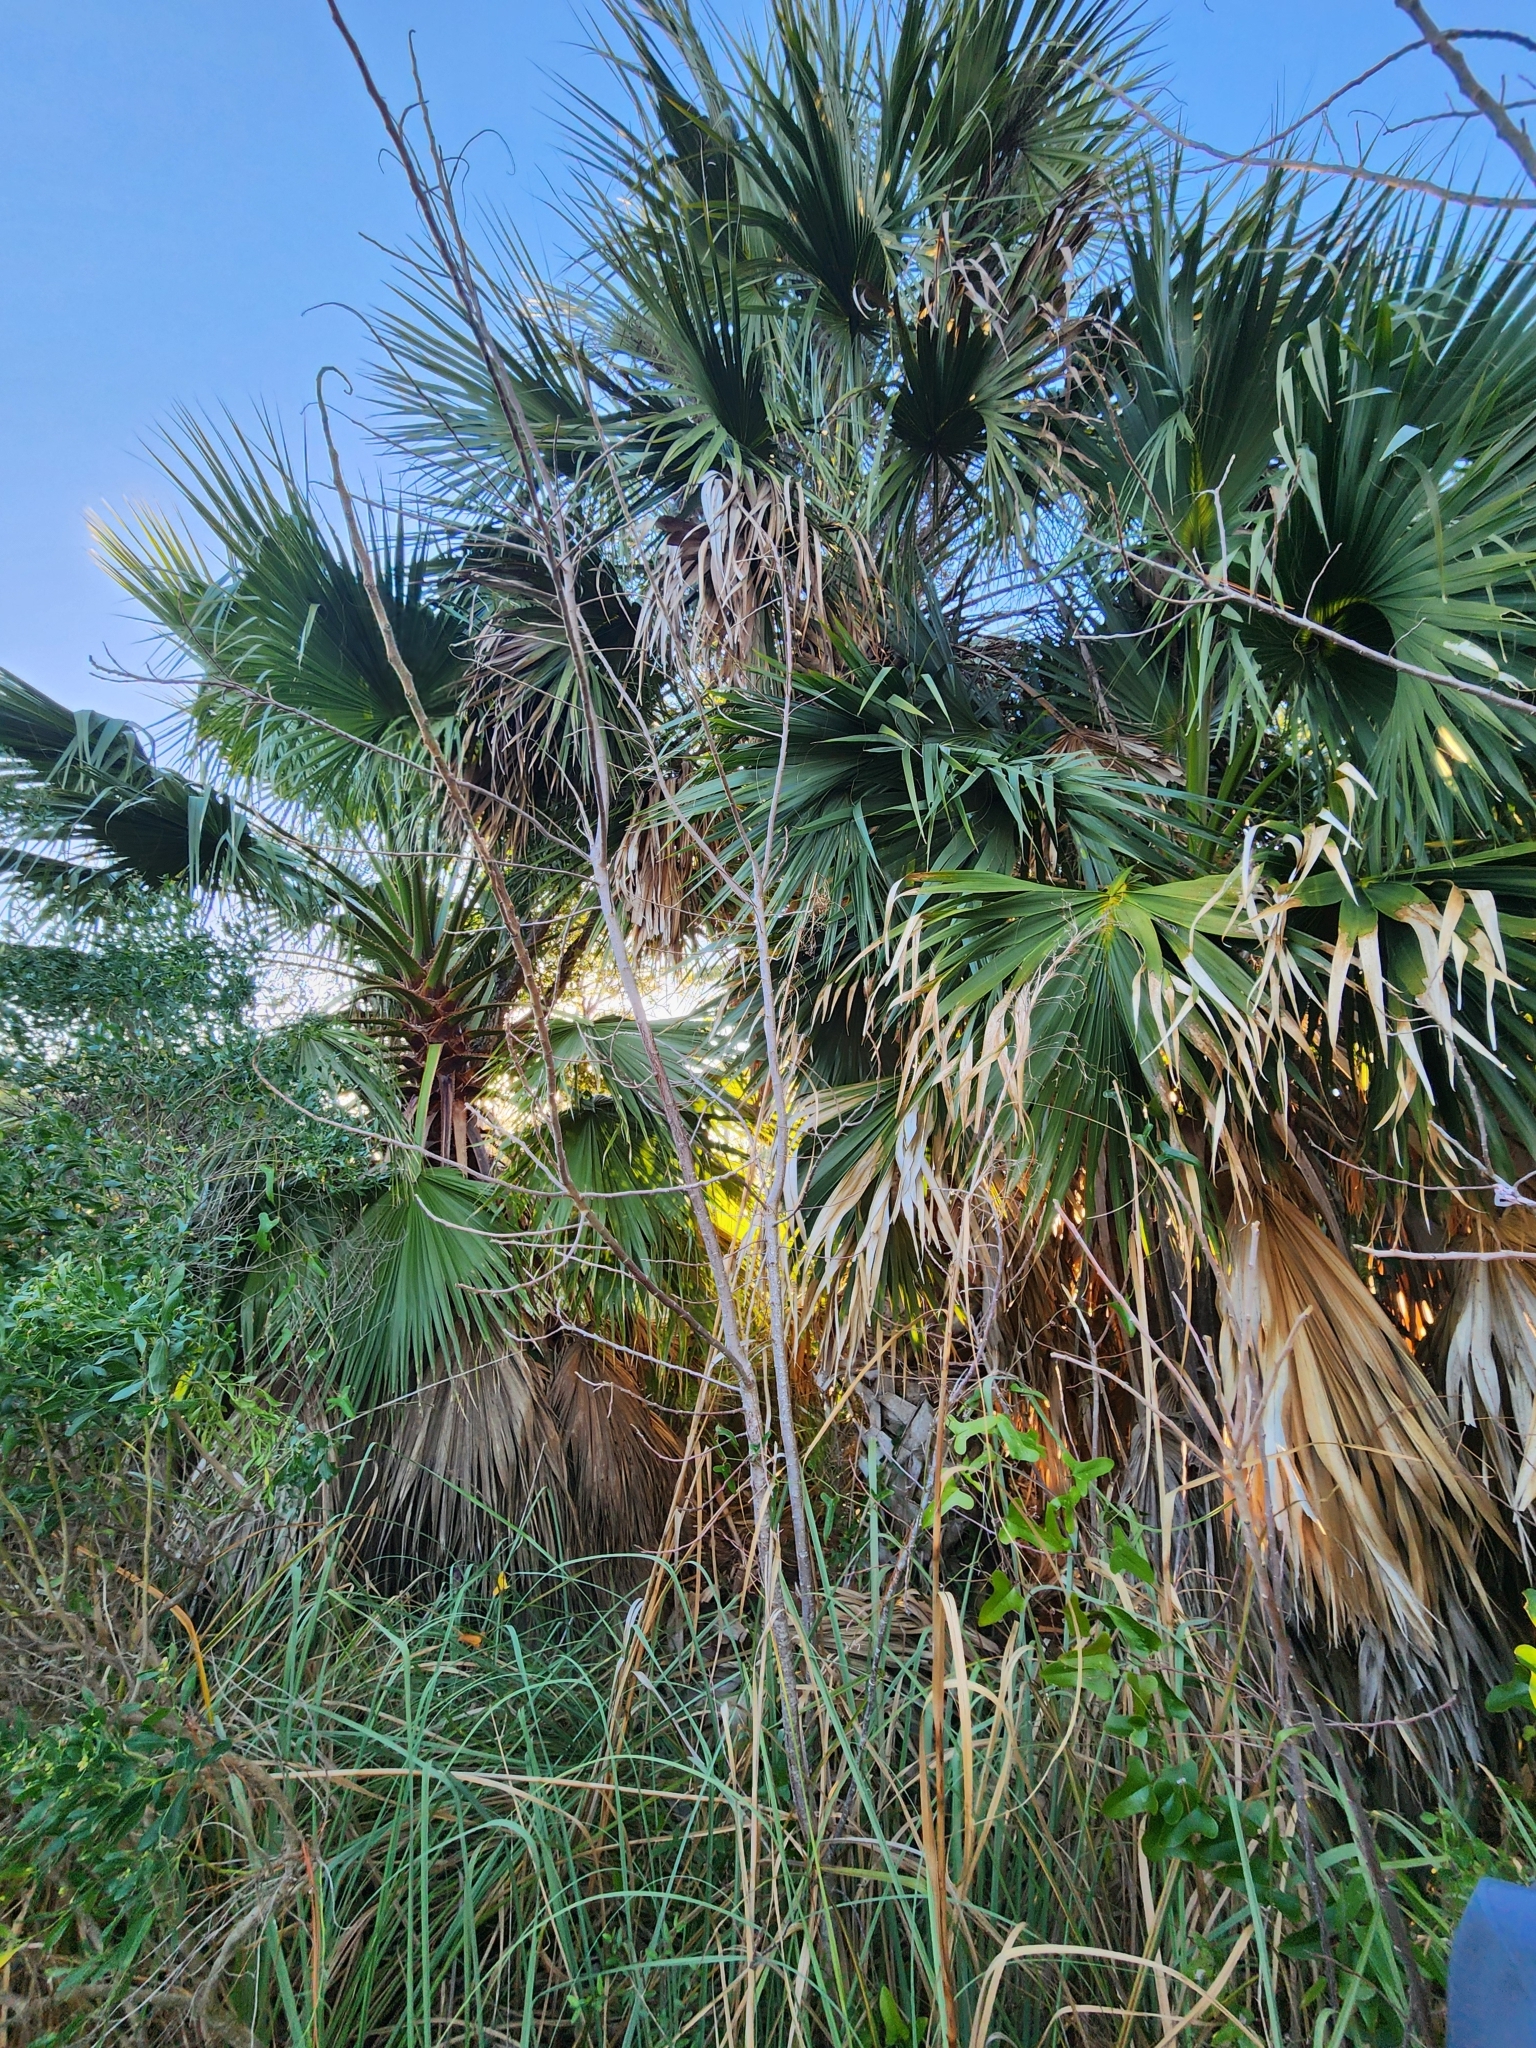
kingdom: Plantae
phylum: Tracheophyta
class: Liliopsida
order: Arecales
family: Arecaceae
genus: Washingtonia
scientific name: Washingtonia robusta
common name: Mexican fan palm
